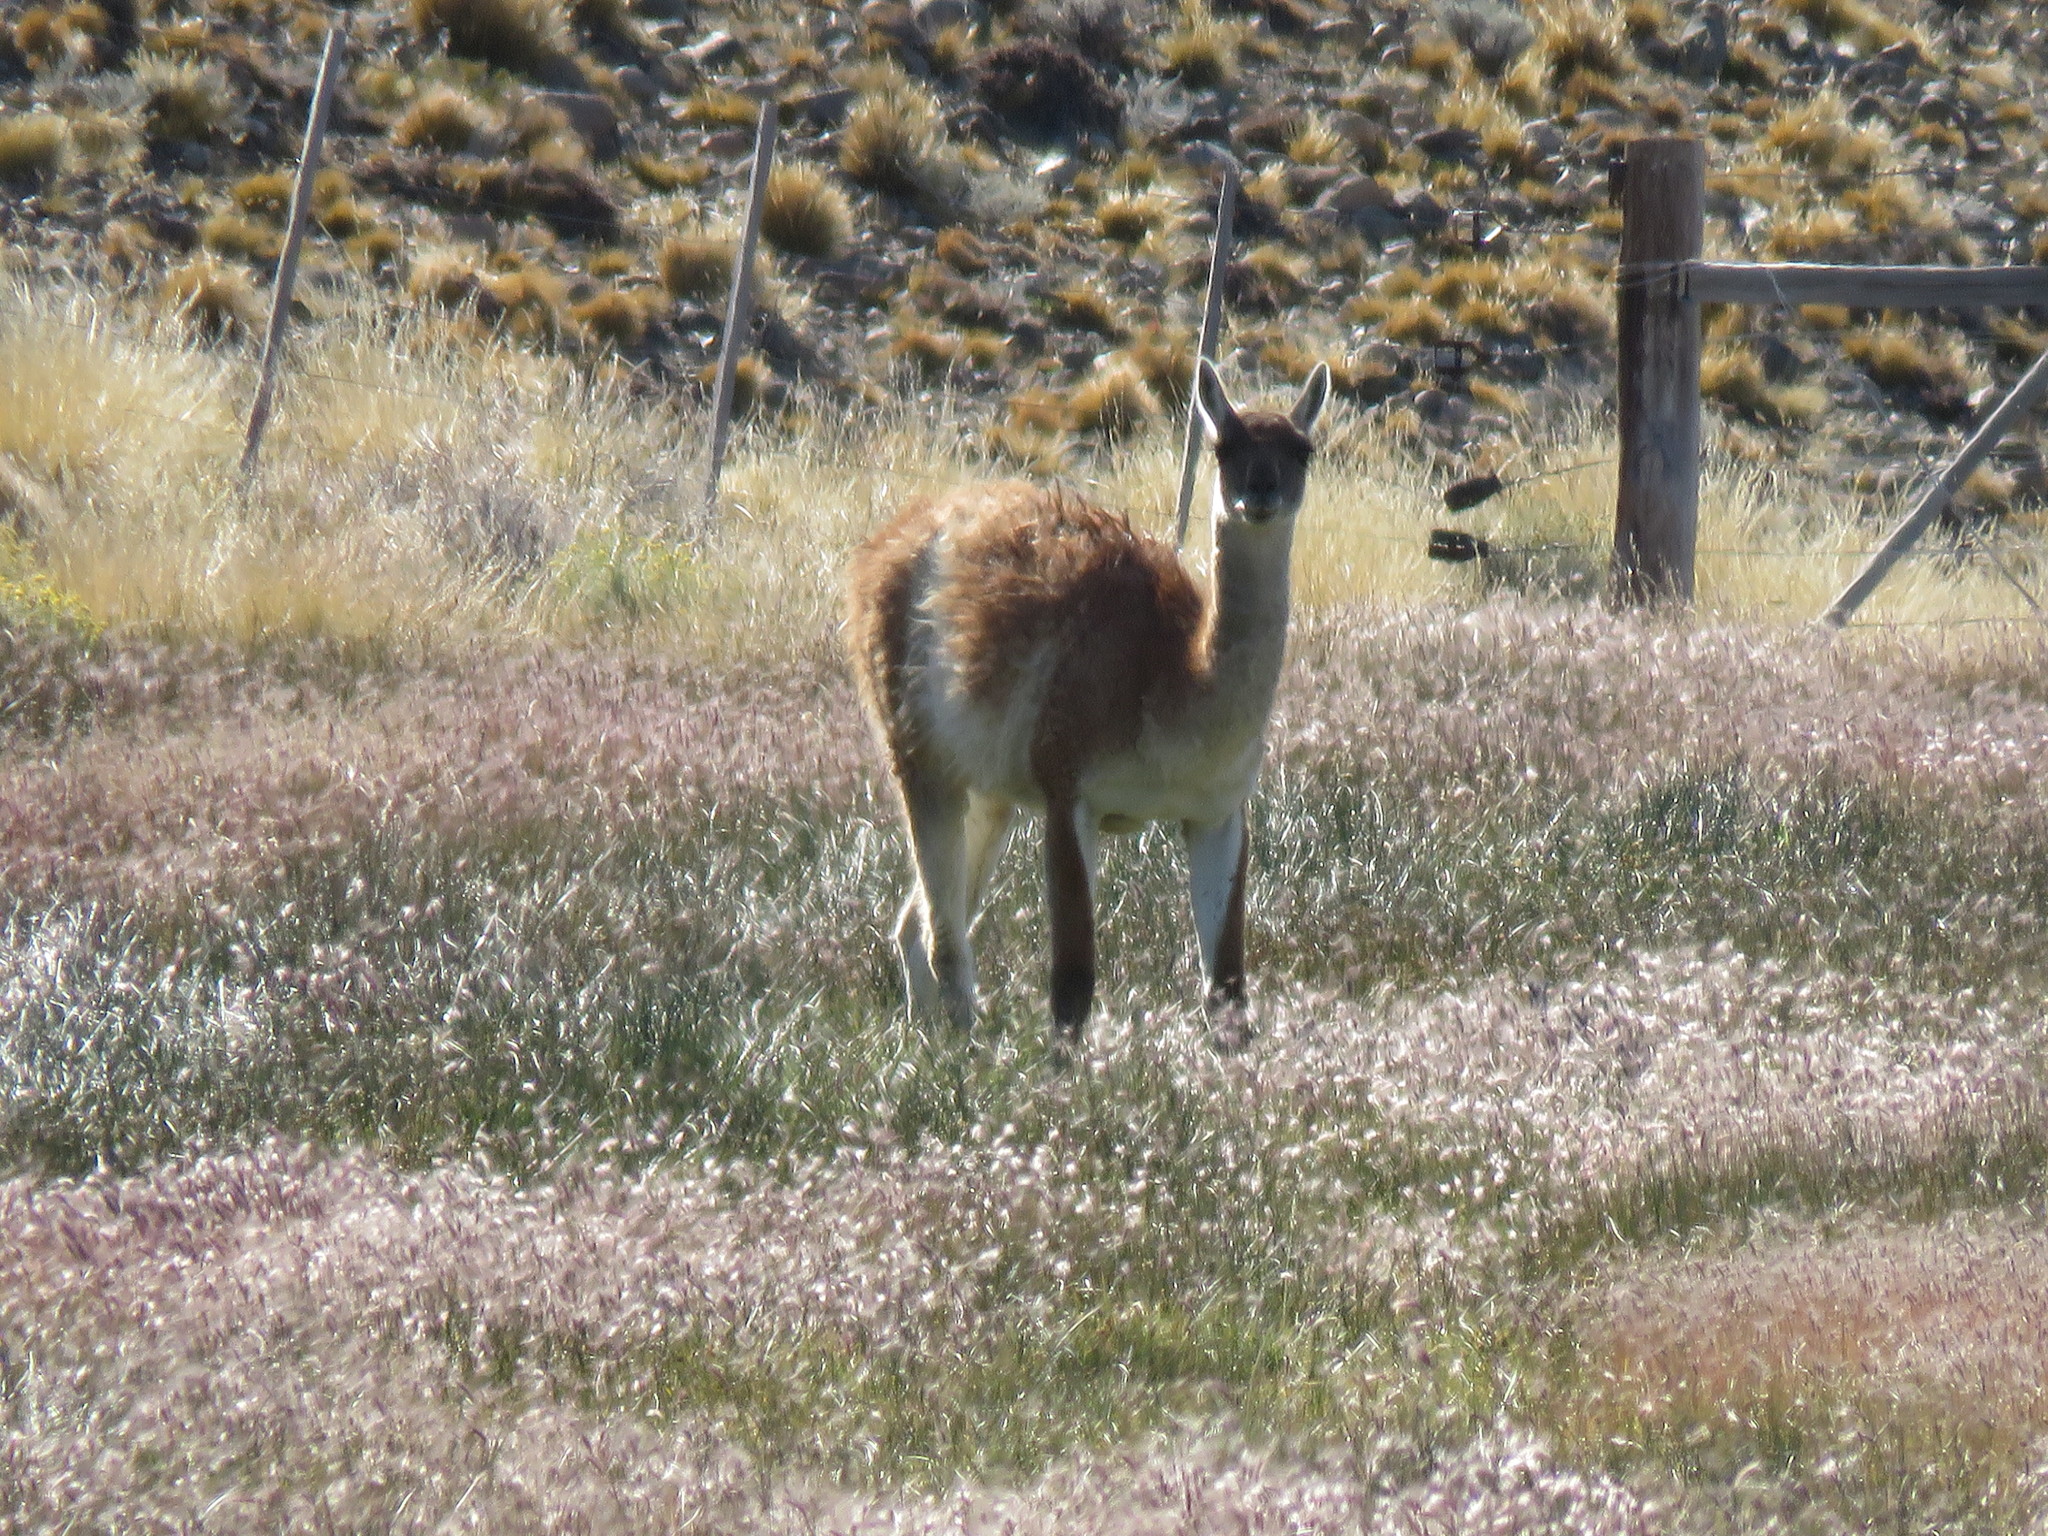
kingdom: Animalia
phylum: Chordata
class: Mammalia
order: Artiodactyla
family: Camelidae
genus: Lama
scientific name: Lama glama
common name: Llama
